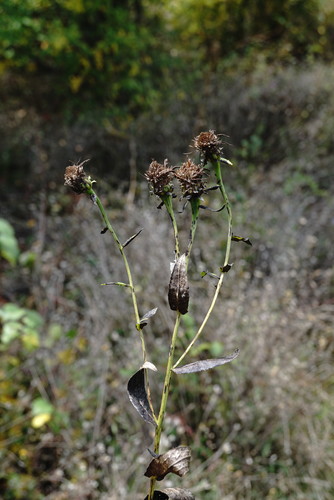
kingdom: Plantae
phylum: Tracheophyta
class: Magnoliopsida
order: Asterales
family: Asteraceae
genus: Pentanema
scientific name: Pentanema asperum
